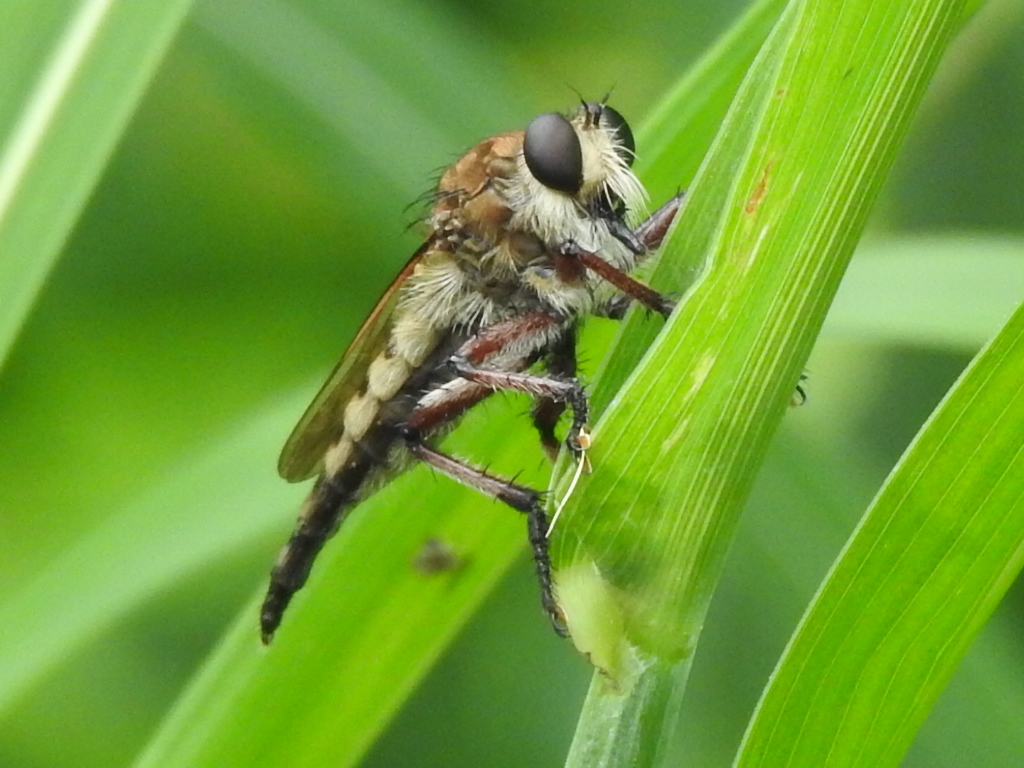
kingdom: Animalia
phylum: Arthropoda
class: Insecta
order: Diptera
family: Asilidae
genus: Promachus
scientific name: Promachus hinei
